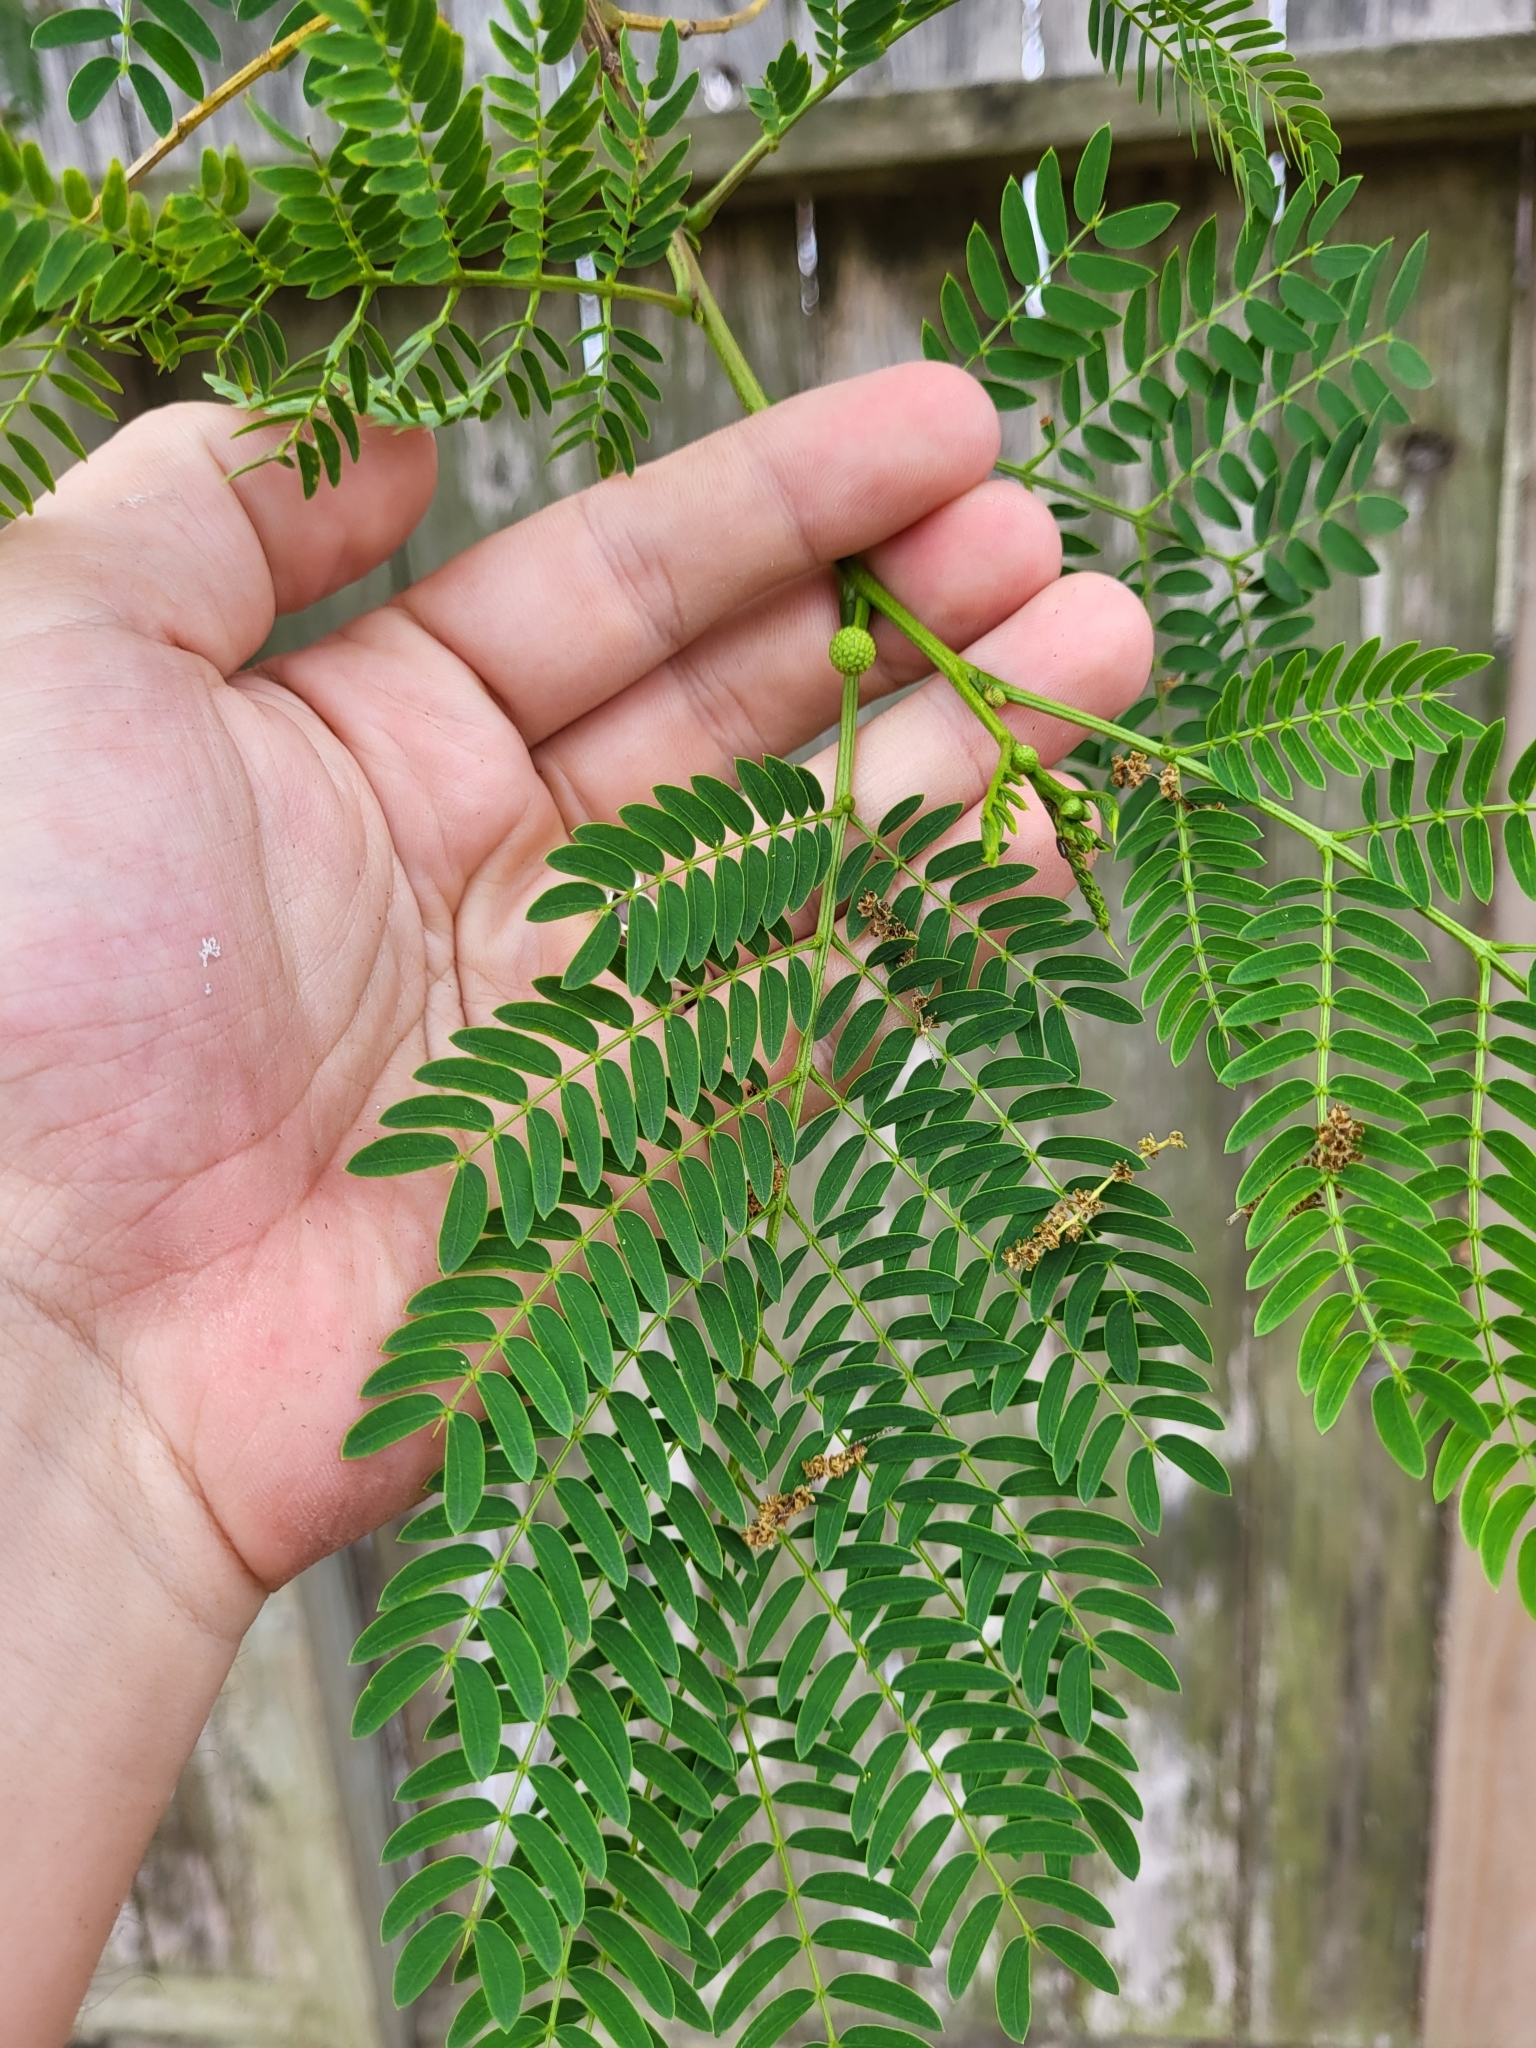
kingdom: Plantae
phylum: Tracheophyta
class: Magnoliopsida
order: Fabales
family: Fabaceae
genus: Leucaena
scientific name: Leucaena leucocephala
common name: White leadtree
